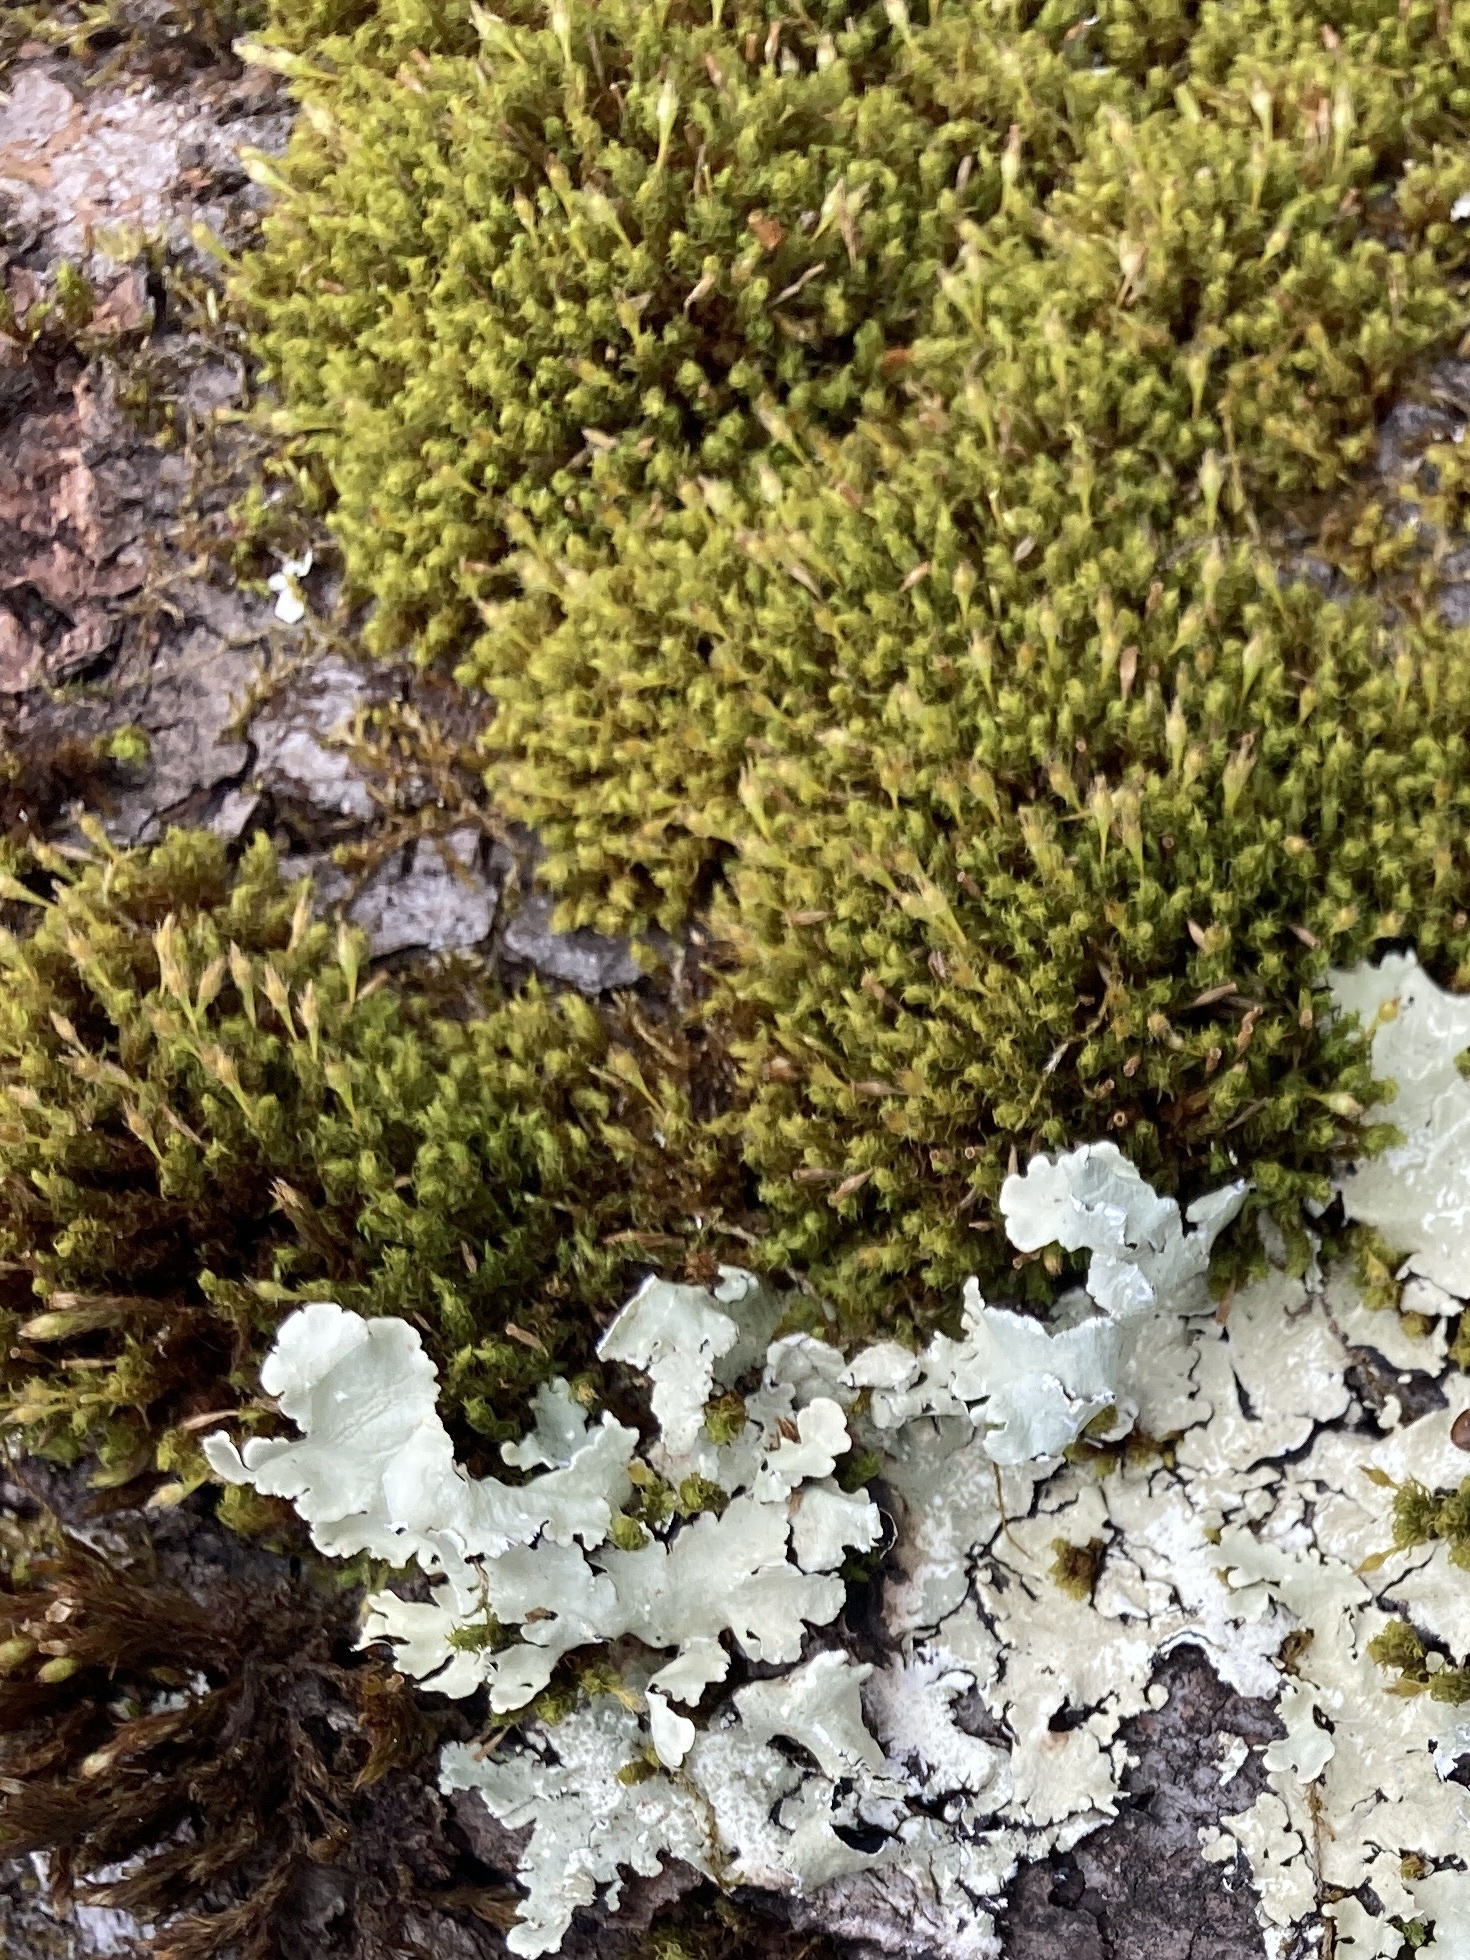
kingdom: Plantae
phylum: Bryophyta
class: Bryopsida
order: Orthotrichales
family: Orthotrichaceae
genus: Ulota
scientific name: Ulota crispa
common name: Crisped pincushion moss
